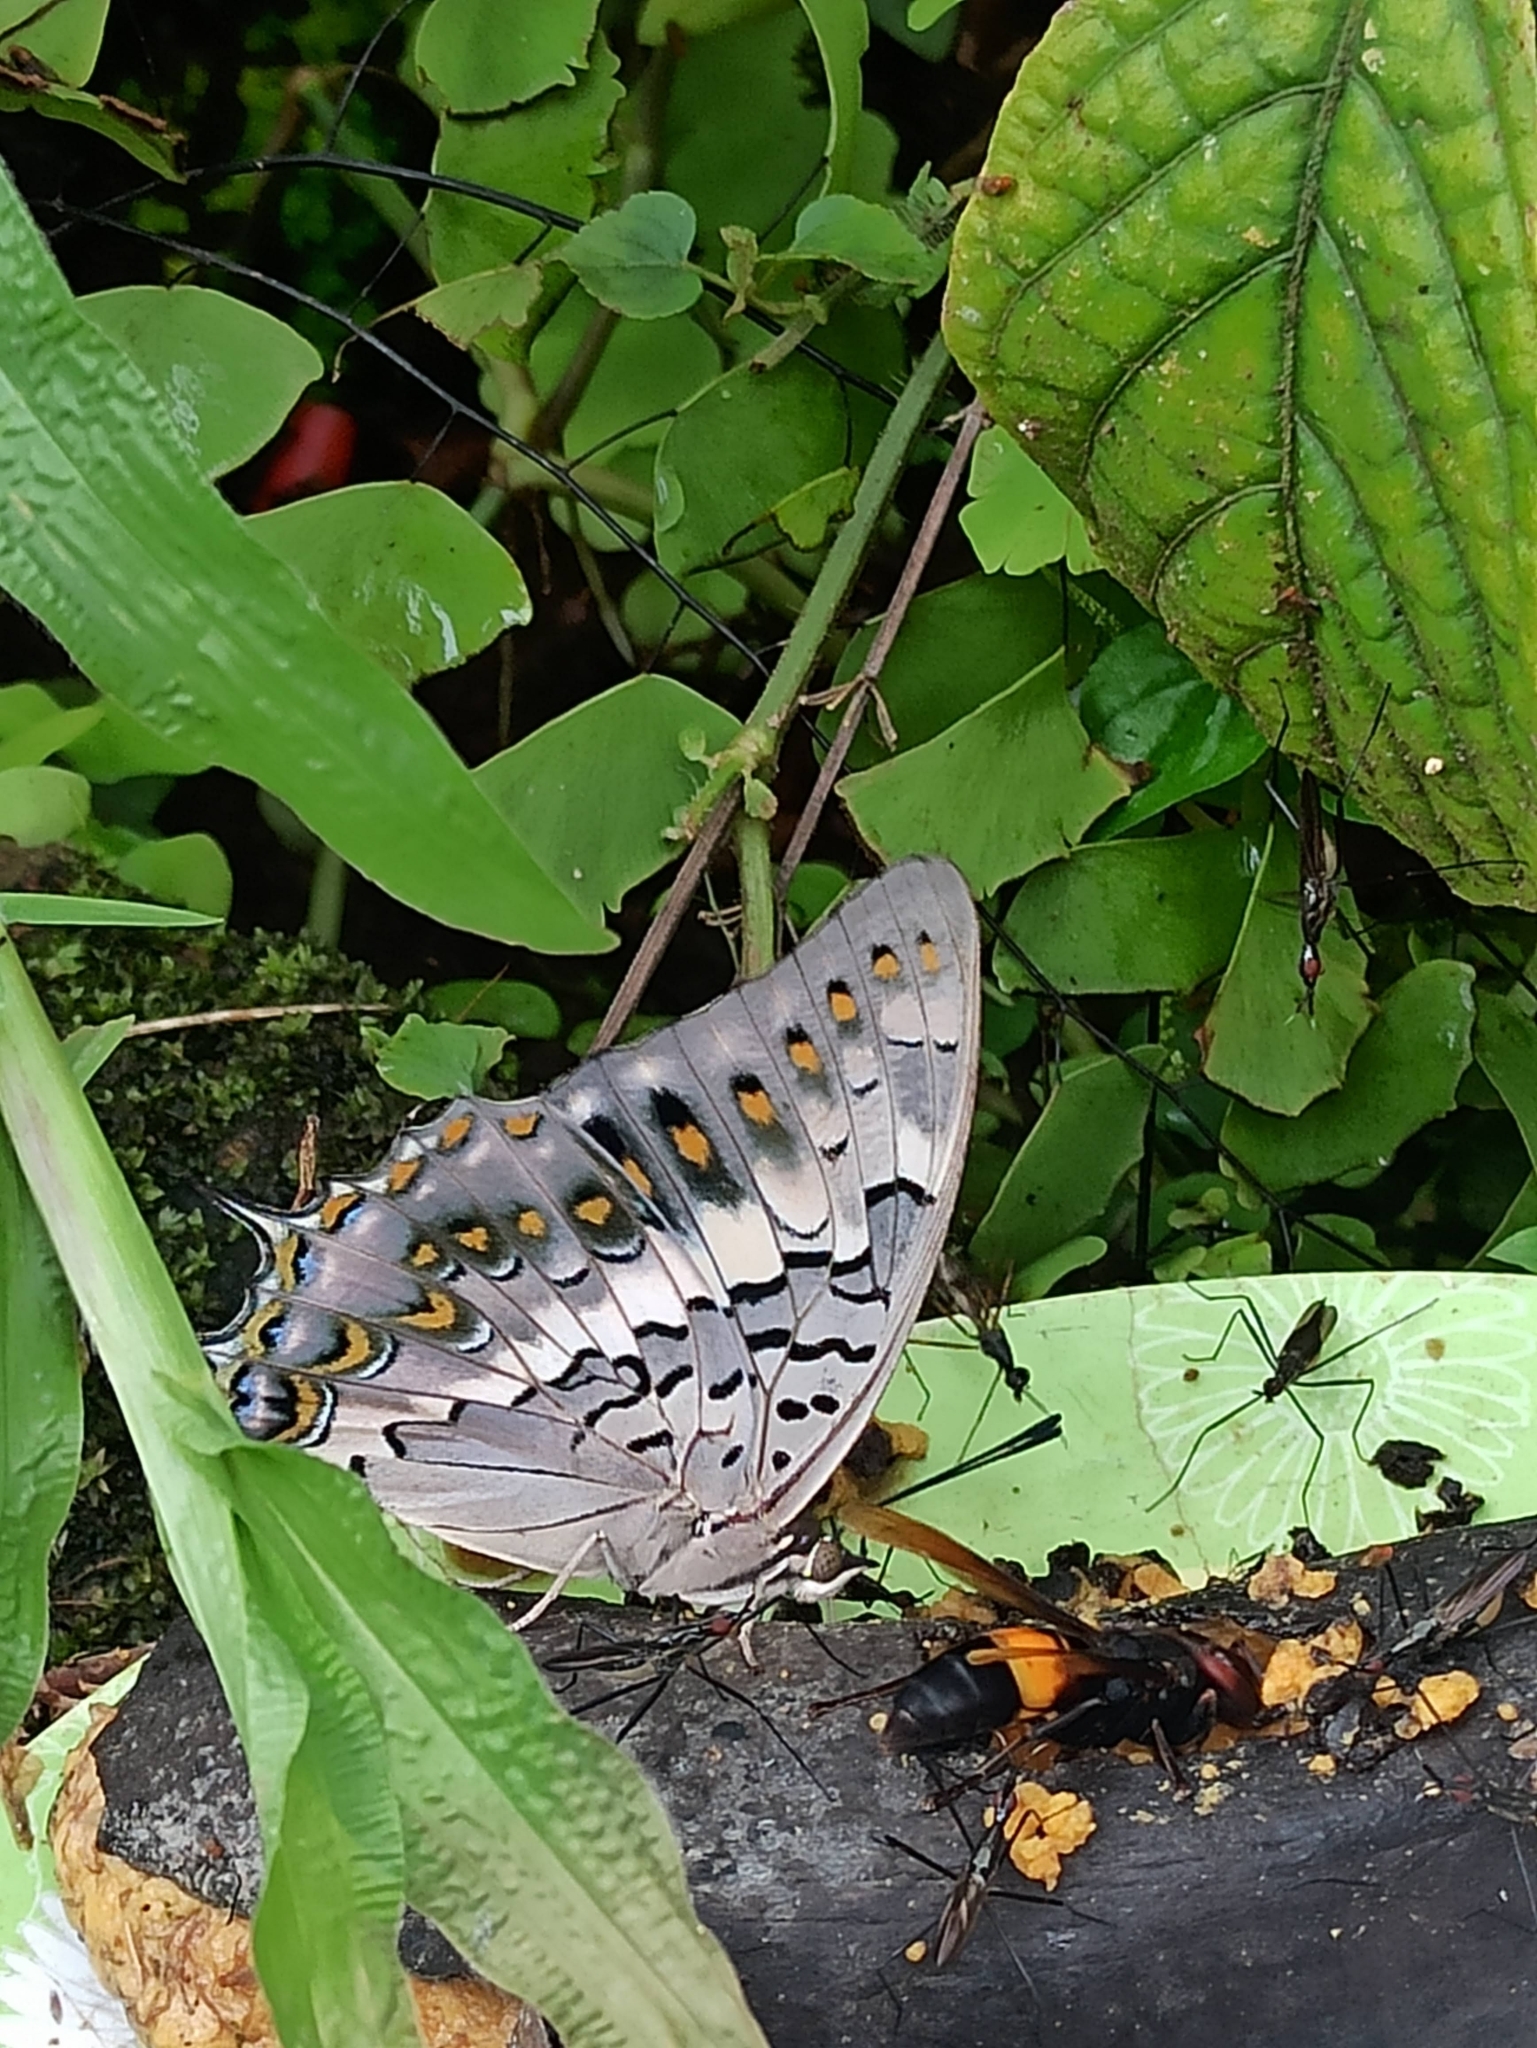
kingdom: Animalia
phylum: Arthropoda
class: Insecta
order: Lepidoptera
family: Nymphalidae
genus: Charaxes
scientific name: Charaxes solon
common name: Black rajah
